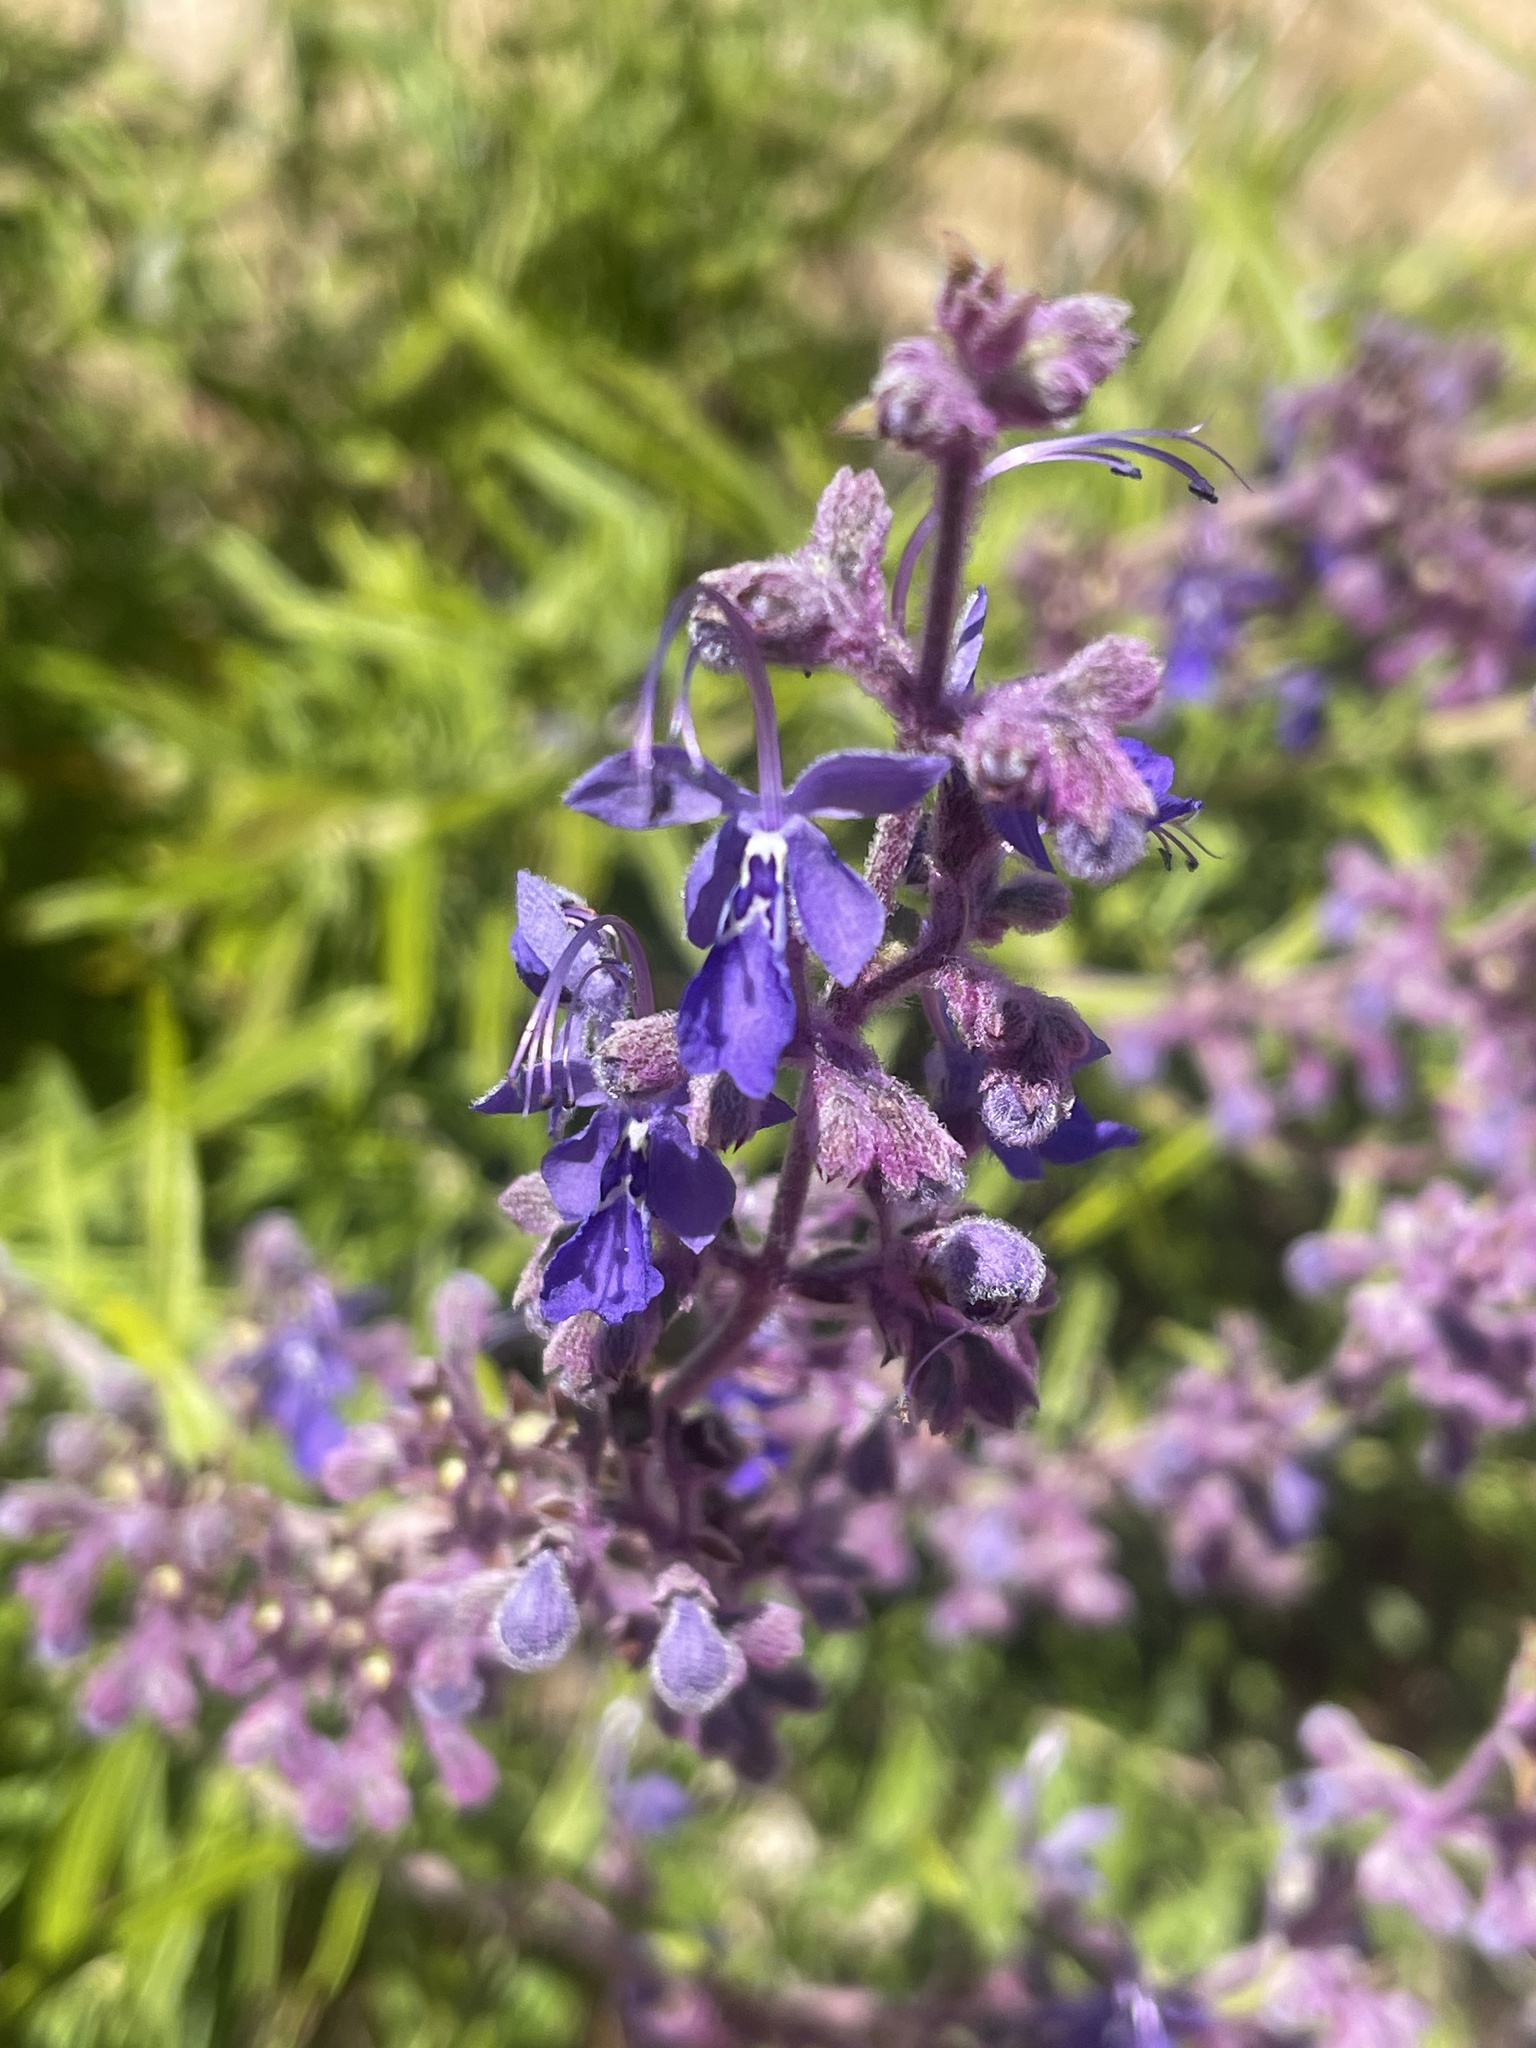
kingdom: Plantae
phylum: Tracheophyta
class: Magnoliopsida
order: Lamiales
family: Lamiaceae
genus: Trichostema
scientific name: Trichostema parishii
